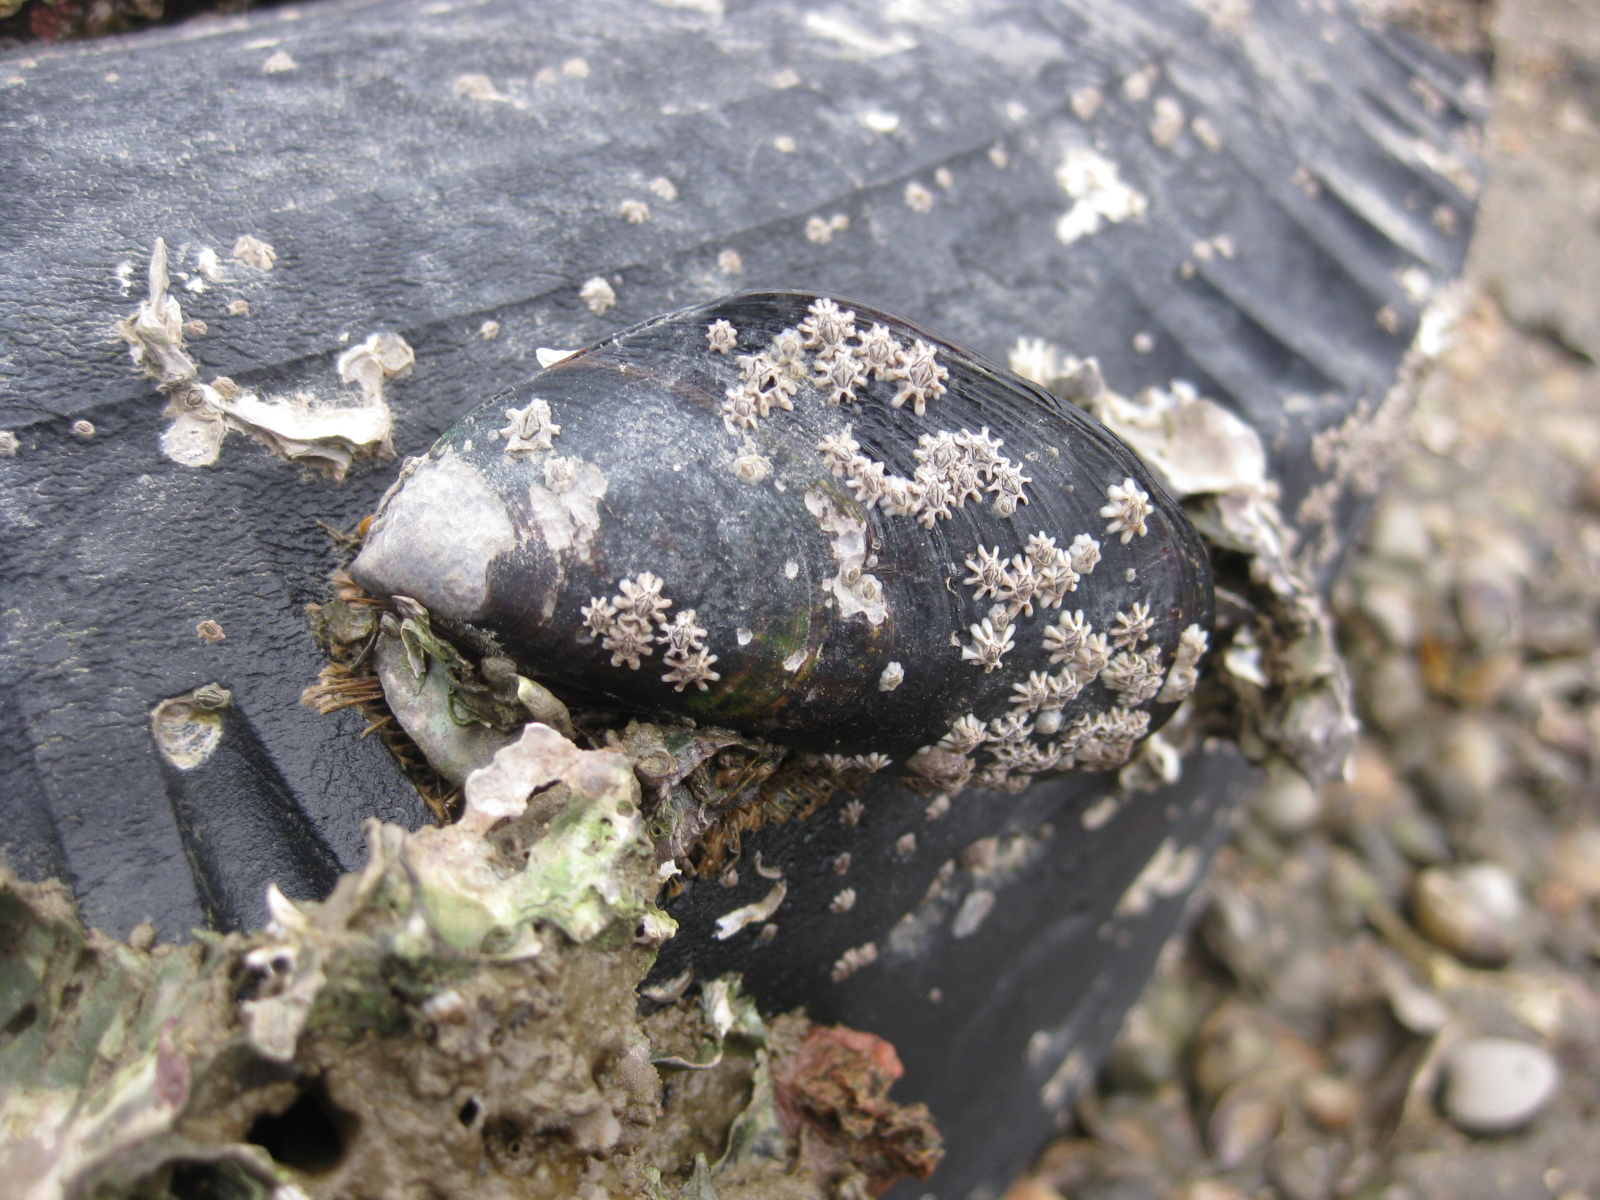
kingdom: Animalia
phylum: Mollusca
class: Bivalvia
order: Mytilida
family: Mytilidae
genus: Perna
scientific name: Perna canaliculus
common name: New zealand greenshelltm
